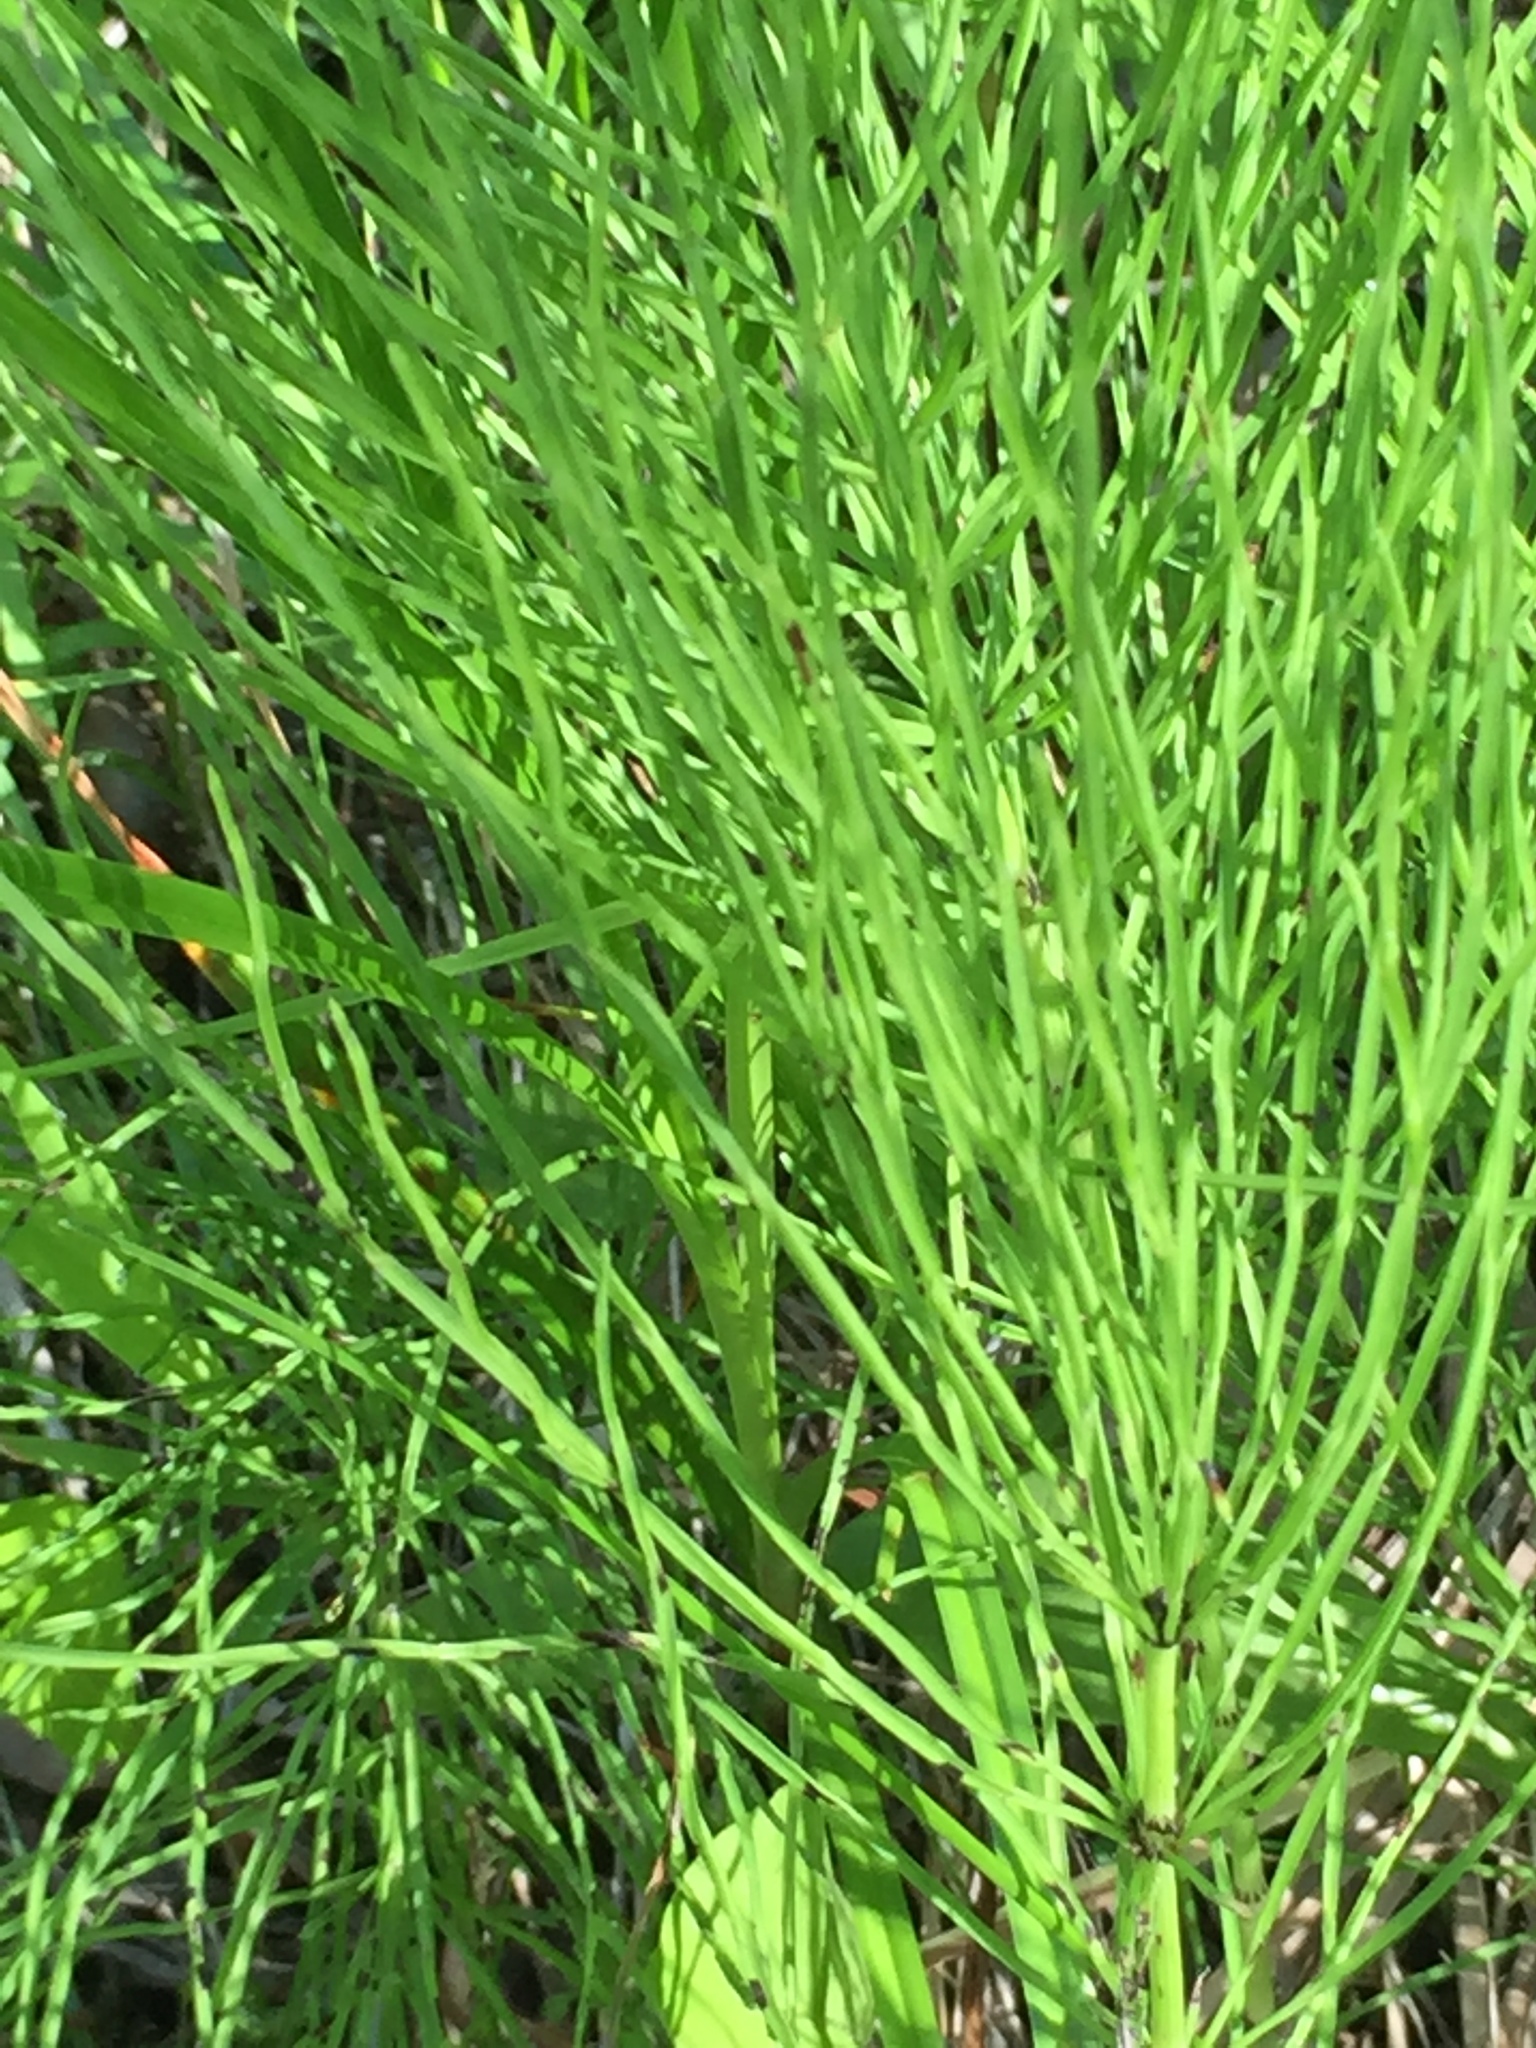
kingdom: Plantae
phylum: Tracheophyta
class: Polypodiopsida
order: Equisetales
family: Equisetaceae
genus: Equisetum
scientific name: Equisetum arvense
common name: Field horsetail
